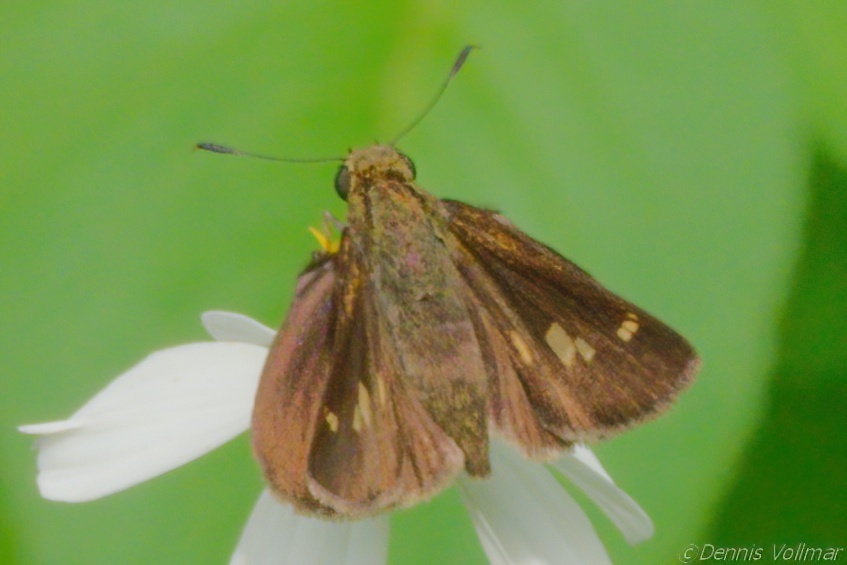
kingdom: Animalia
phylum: Arthropoda
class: Insecta
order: Lepidoptera
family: Hesperiidae
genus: Vernia
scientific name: Vernia verna
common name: Little glassywing
